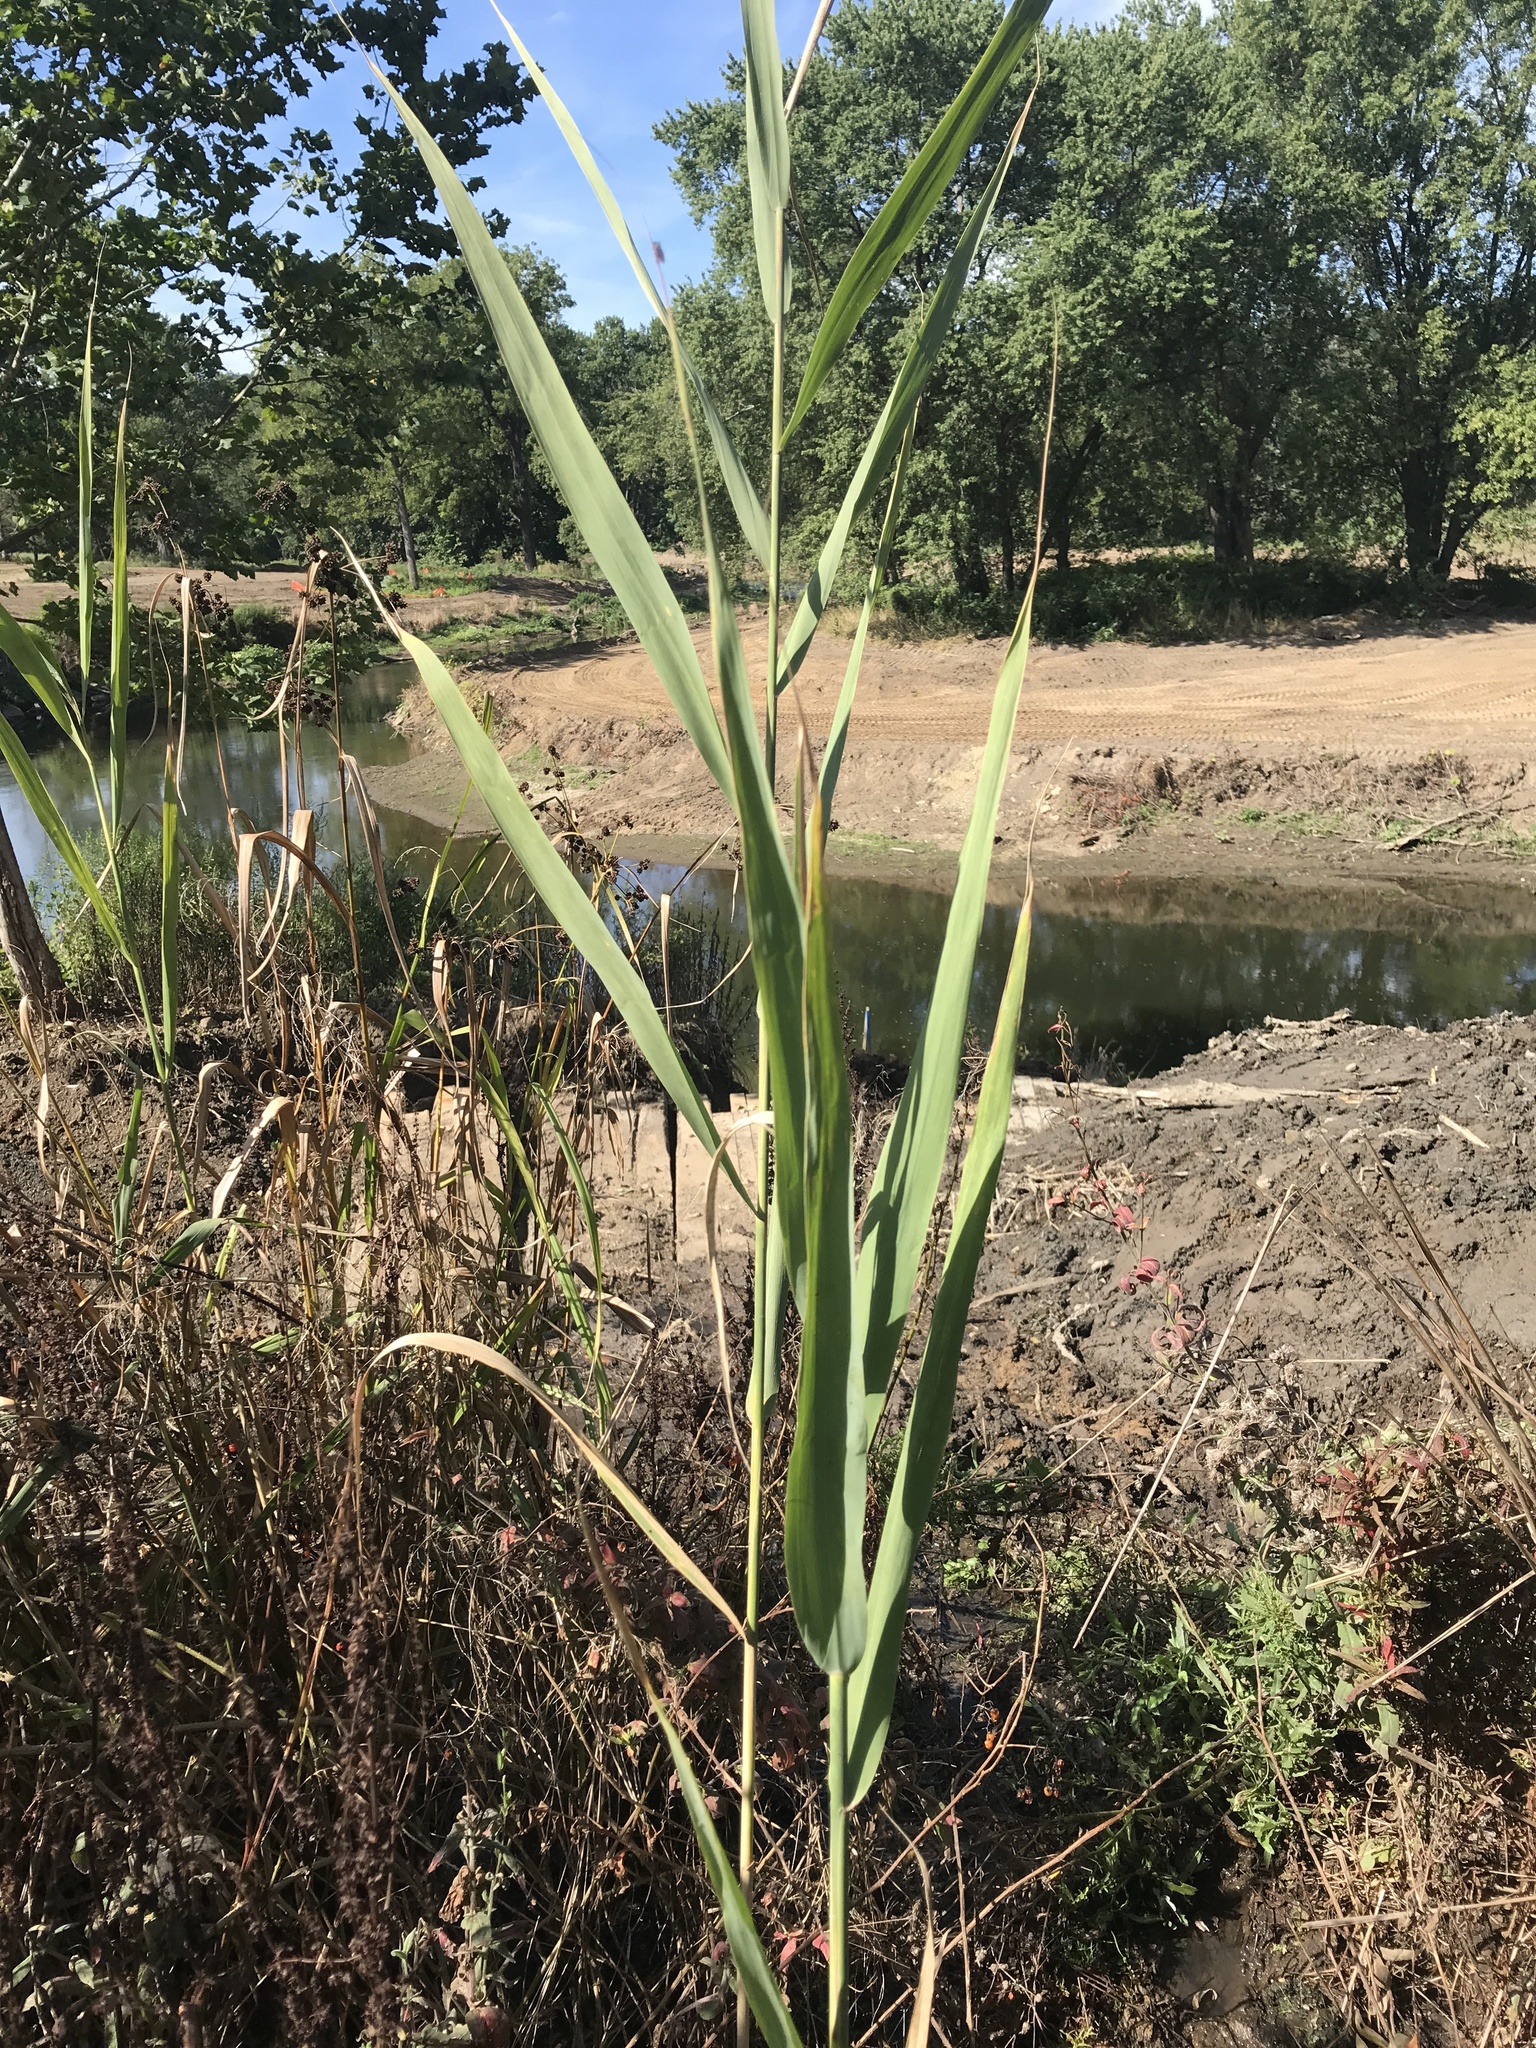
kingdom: Plantae
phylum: Tracheophyta
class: Liliopsida
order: Poales
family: Poaceae
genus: Phragmites
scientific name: Phragmites australis
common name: Common reed
